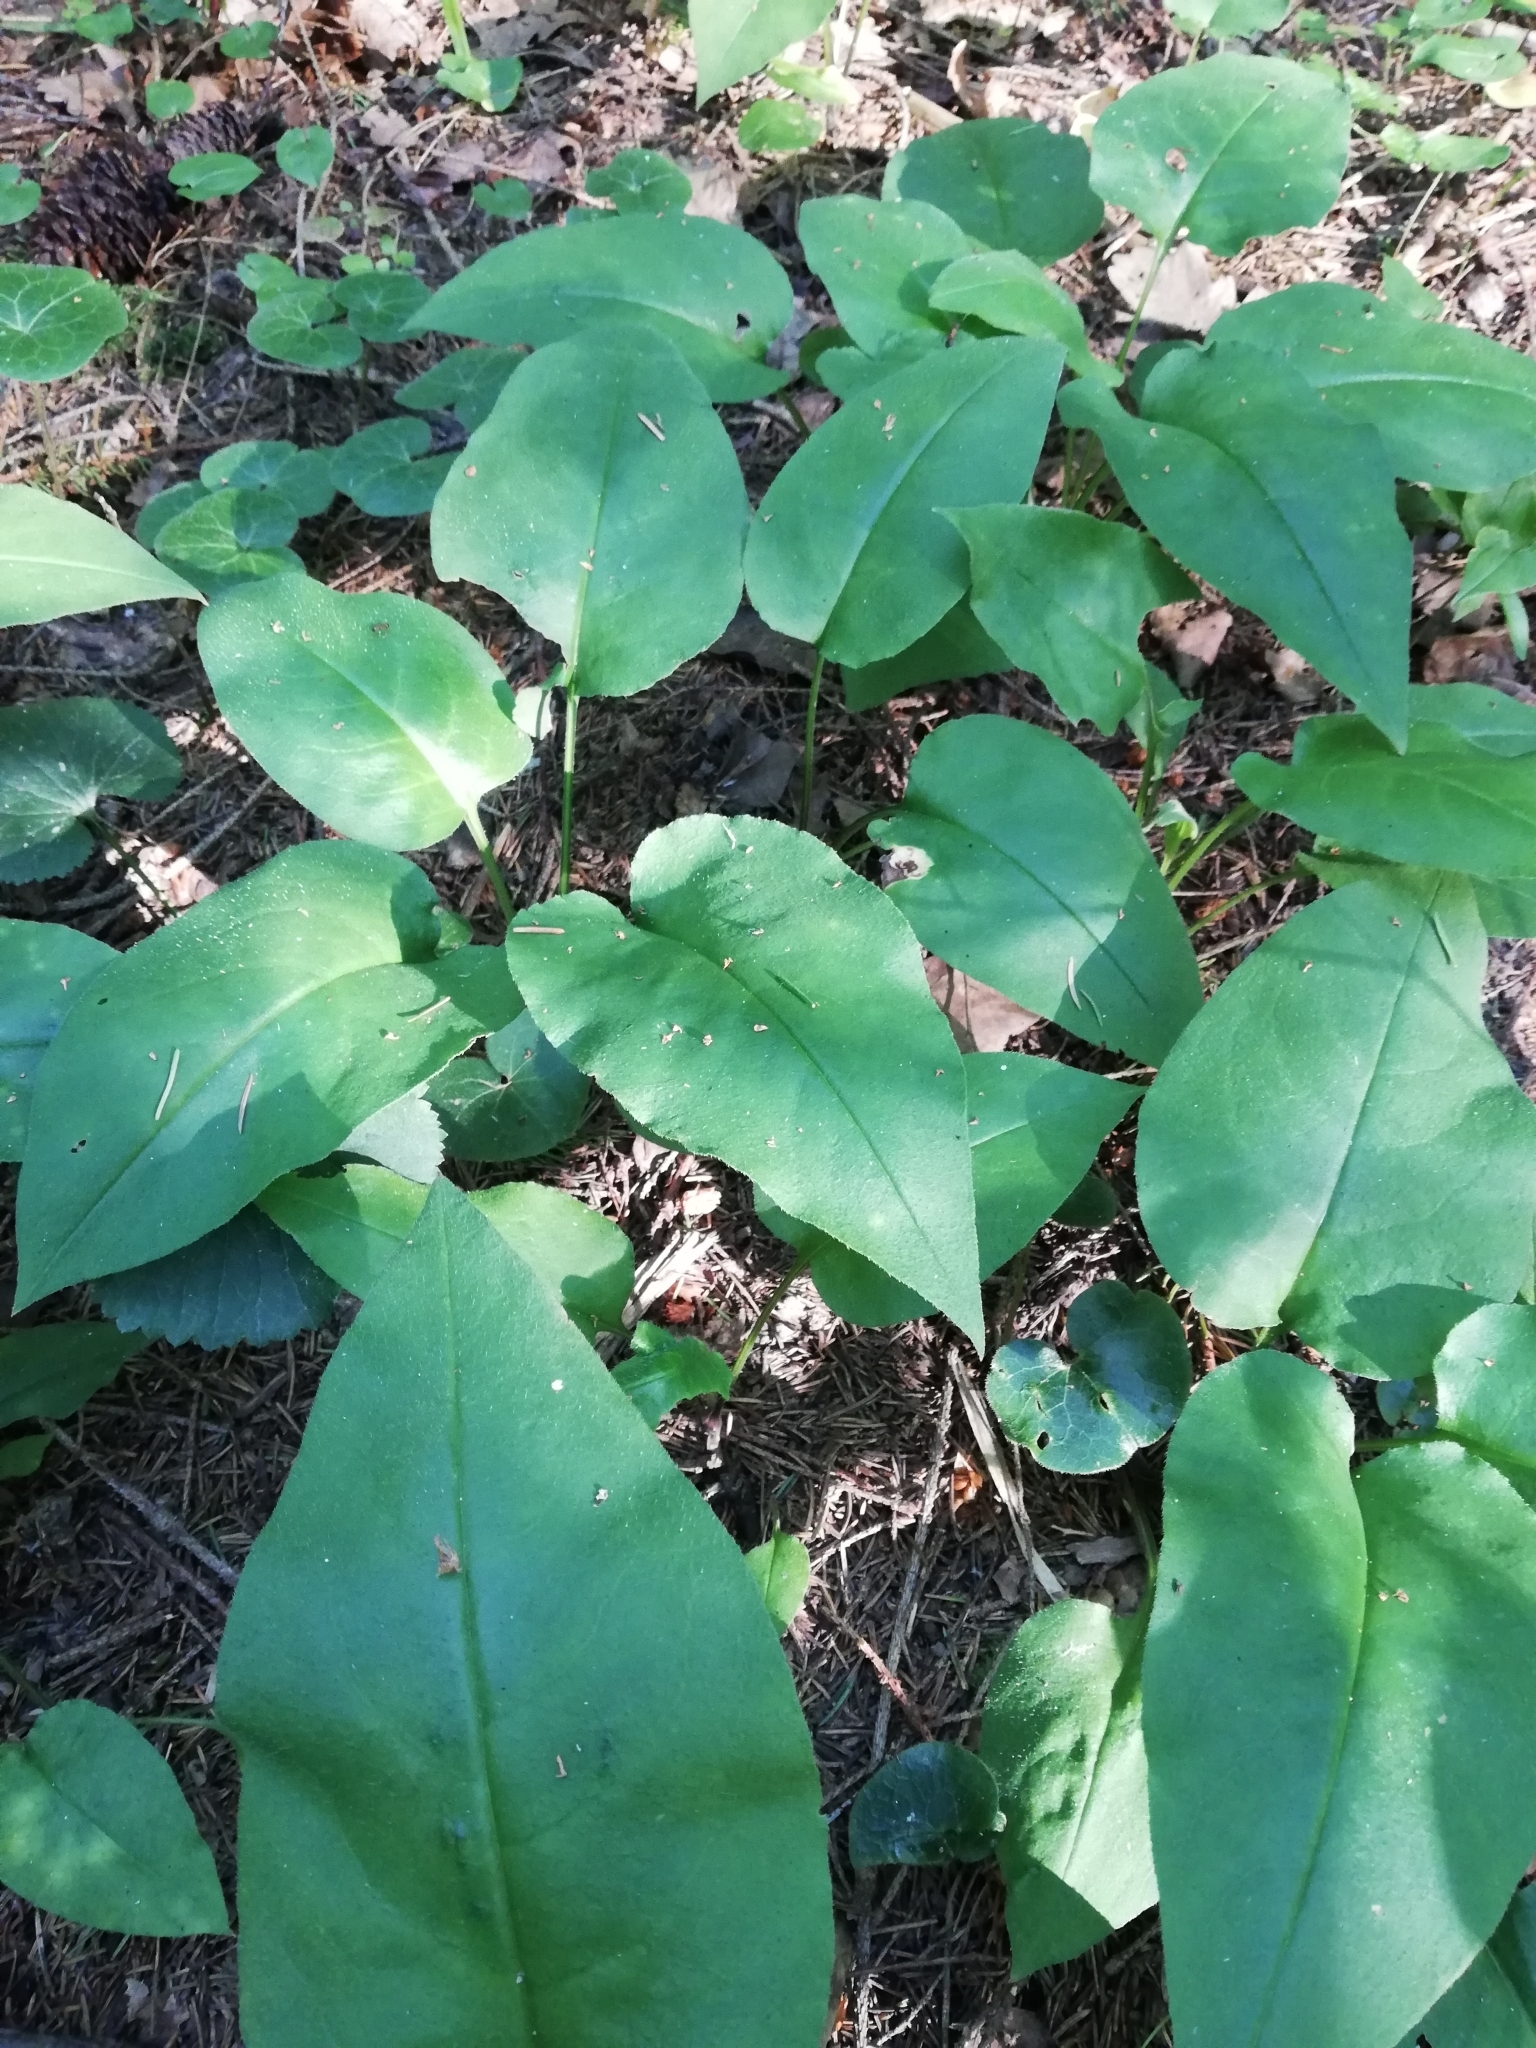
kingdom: Plantae
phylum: Tracheophyta
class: Magnoliopsida
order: Boraginales
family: Boraginaceae
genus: Pulmonaria
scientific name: Pulmonaria obscura
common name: Suffolk lungwort
